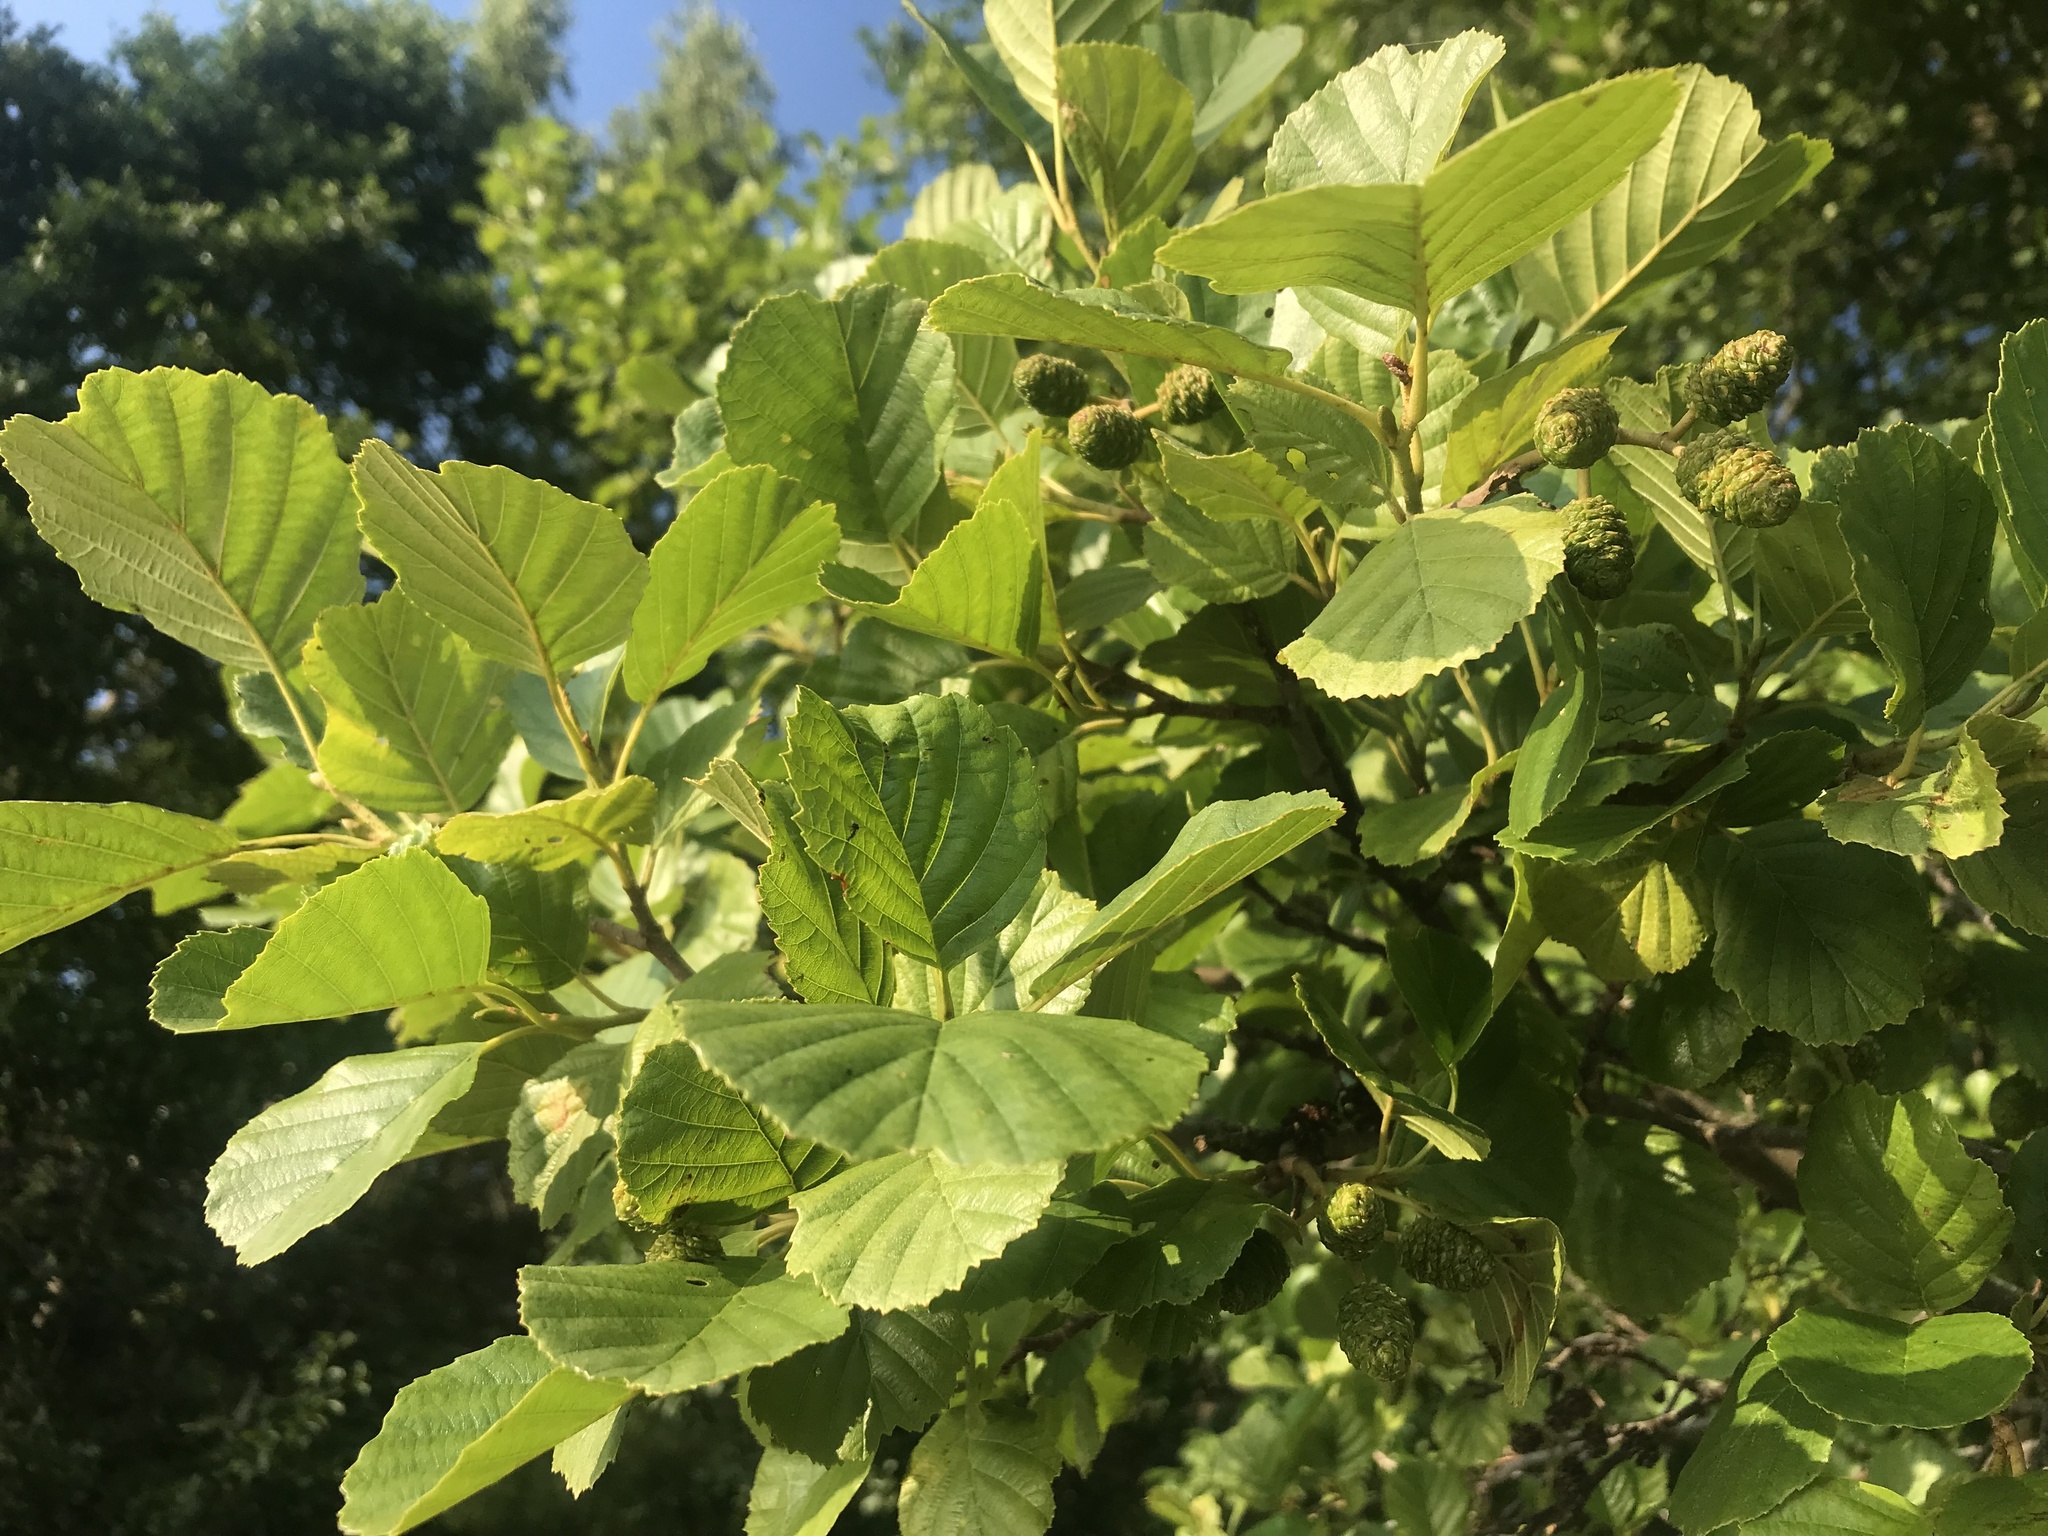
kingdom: Plantae
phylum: Tracheophyta
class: Magnoliopsida
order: Fagales
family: Betulaceae
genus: Alnus
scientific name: Alnus glutinosa
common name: Black alder
